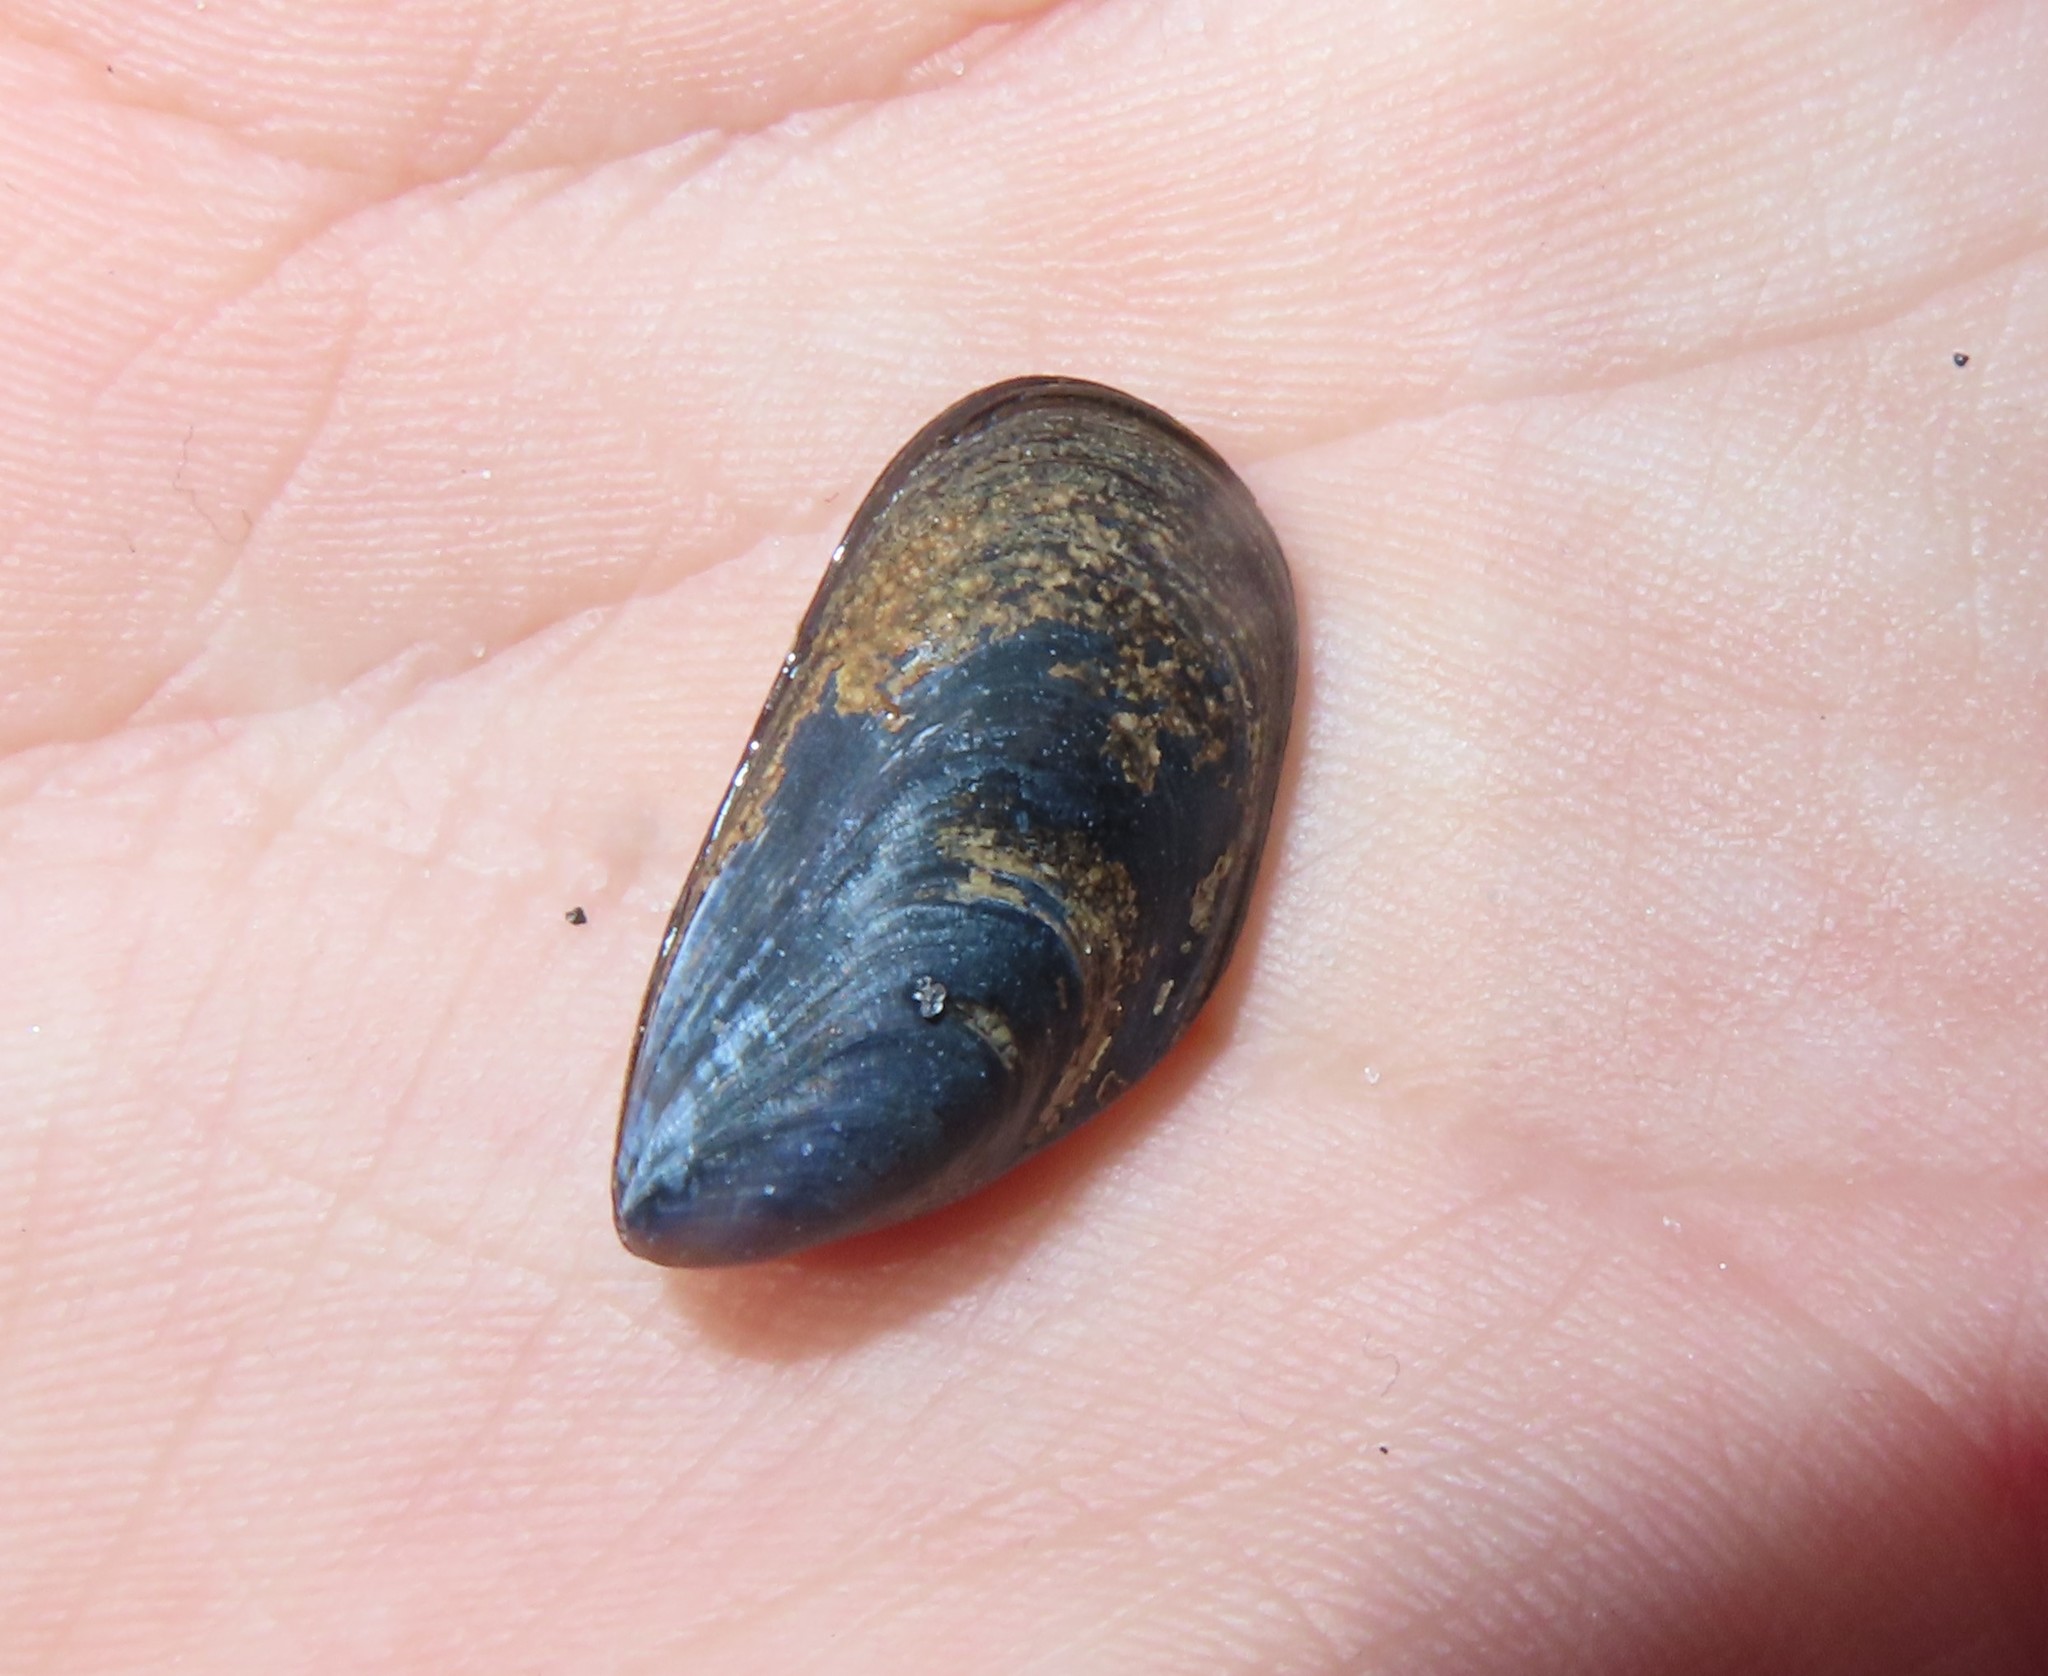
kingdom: Animalia
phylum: Mollusca
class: Bivalvia
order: Mytilida
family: Mytilidae
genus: Mytilus
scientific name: Mytilus edulis
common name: Blue mussel
